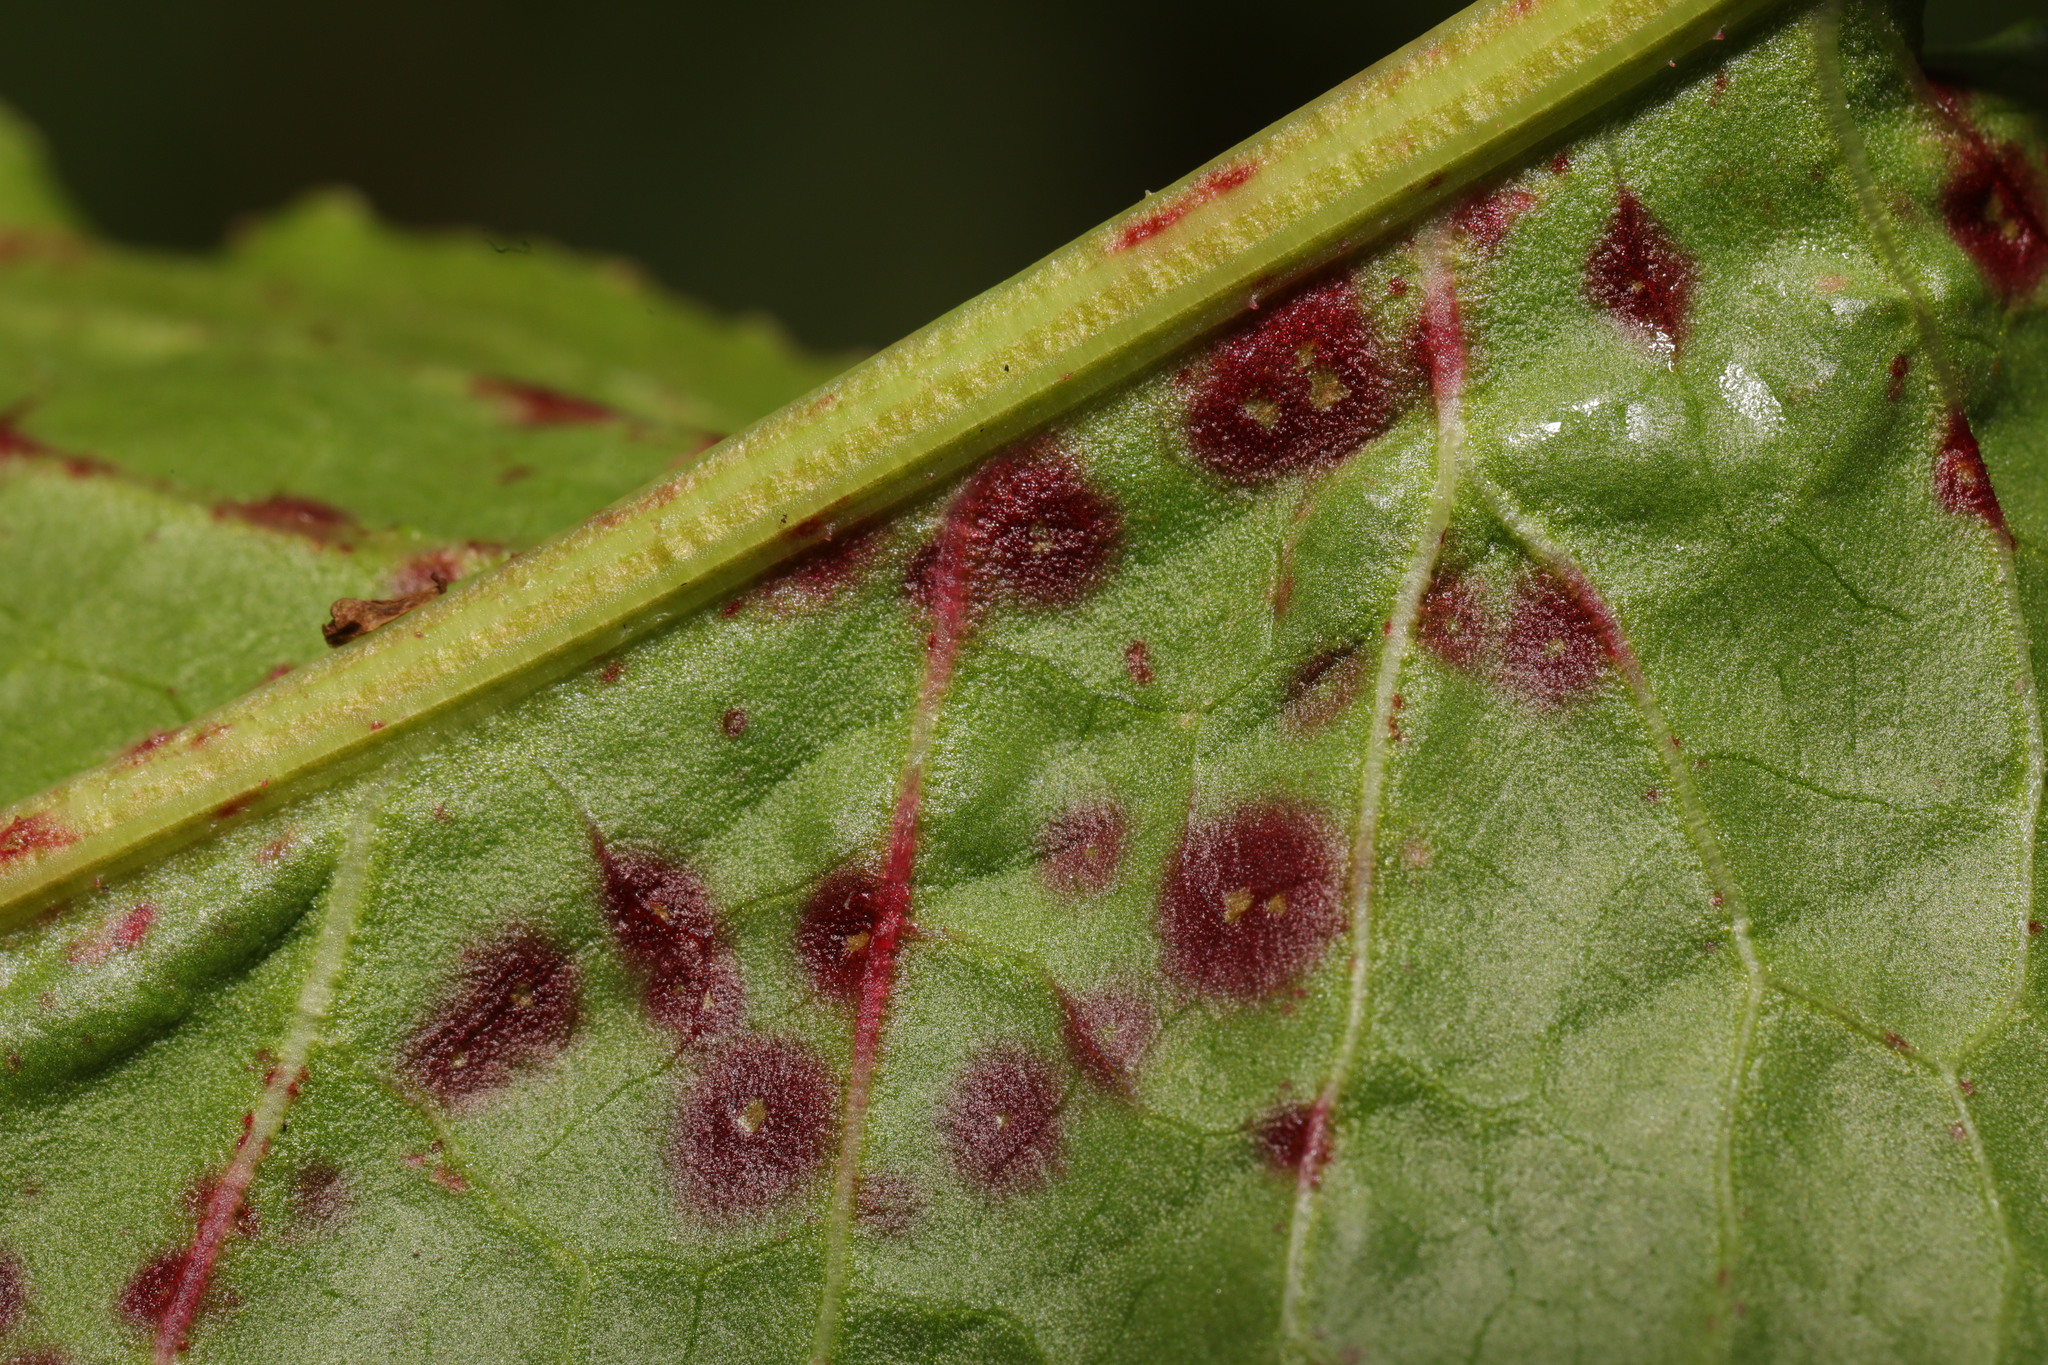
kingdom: Fungi
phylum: Ascomycota
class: Dothideomycetes
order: Mycosphaerellales
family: Mycosphaerellaceae
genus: Ramularia
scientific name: Ramularia rubella
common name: Red dock spot
